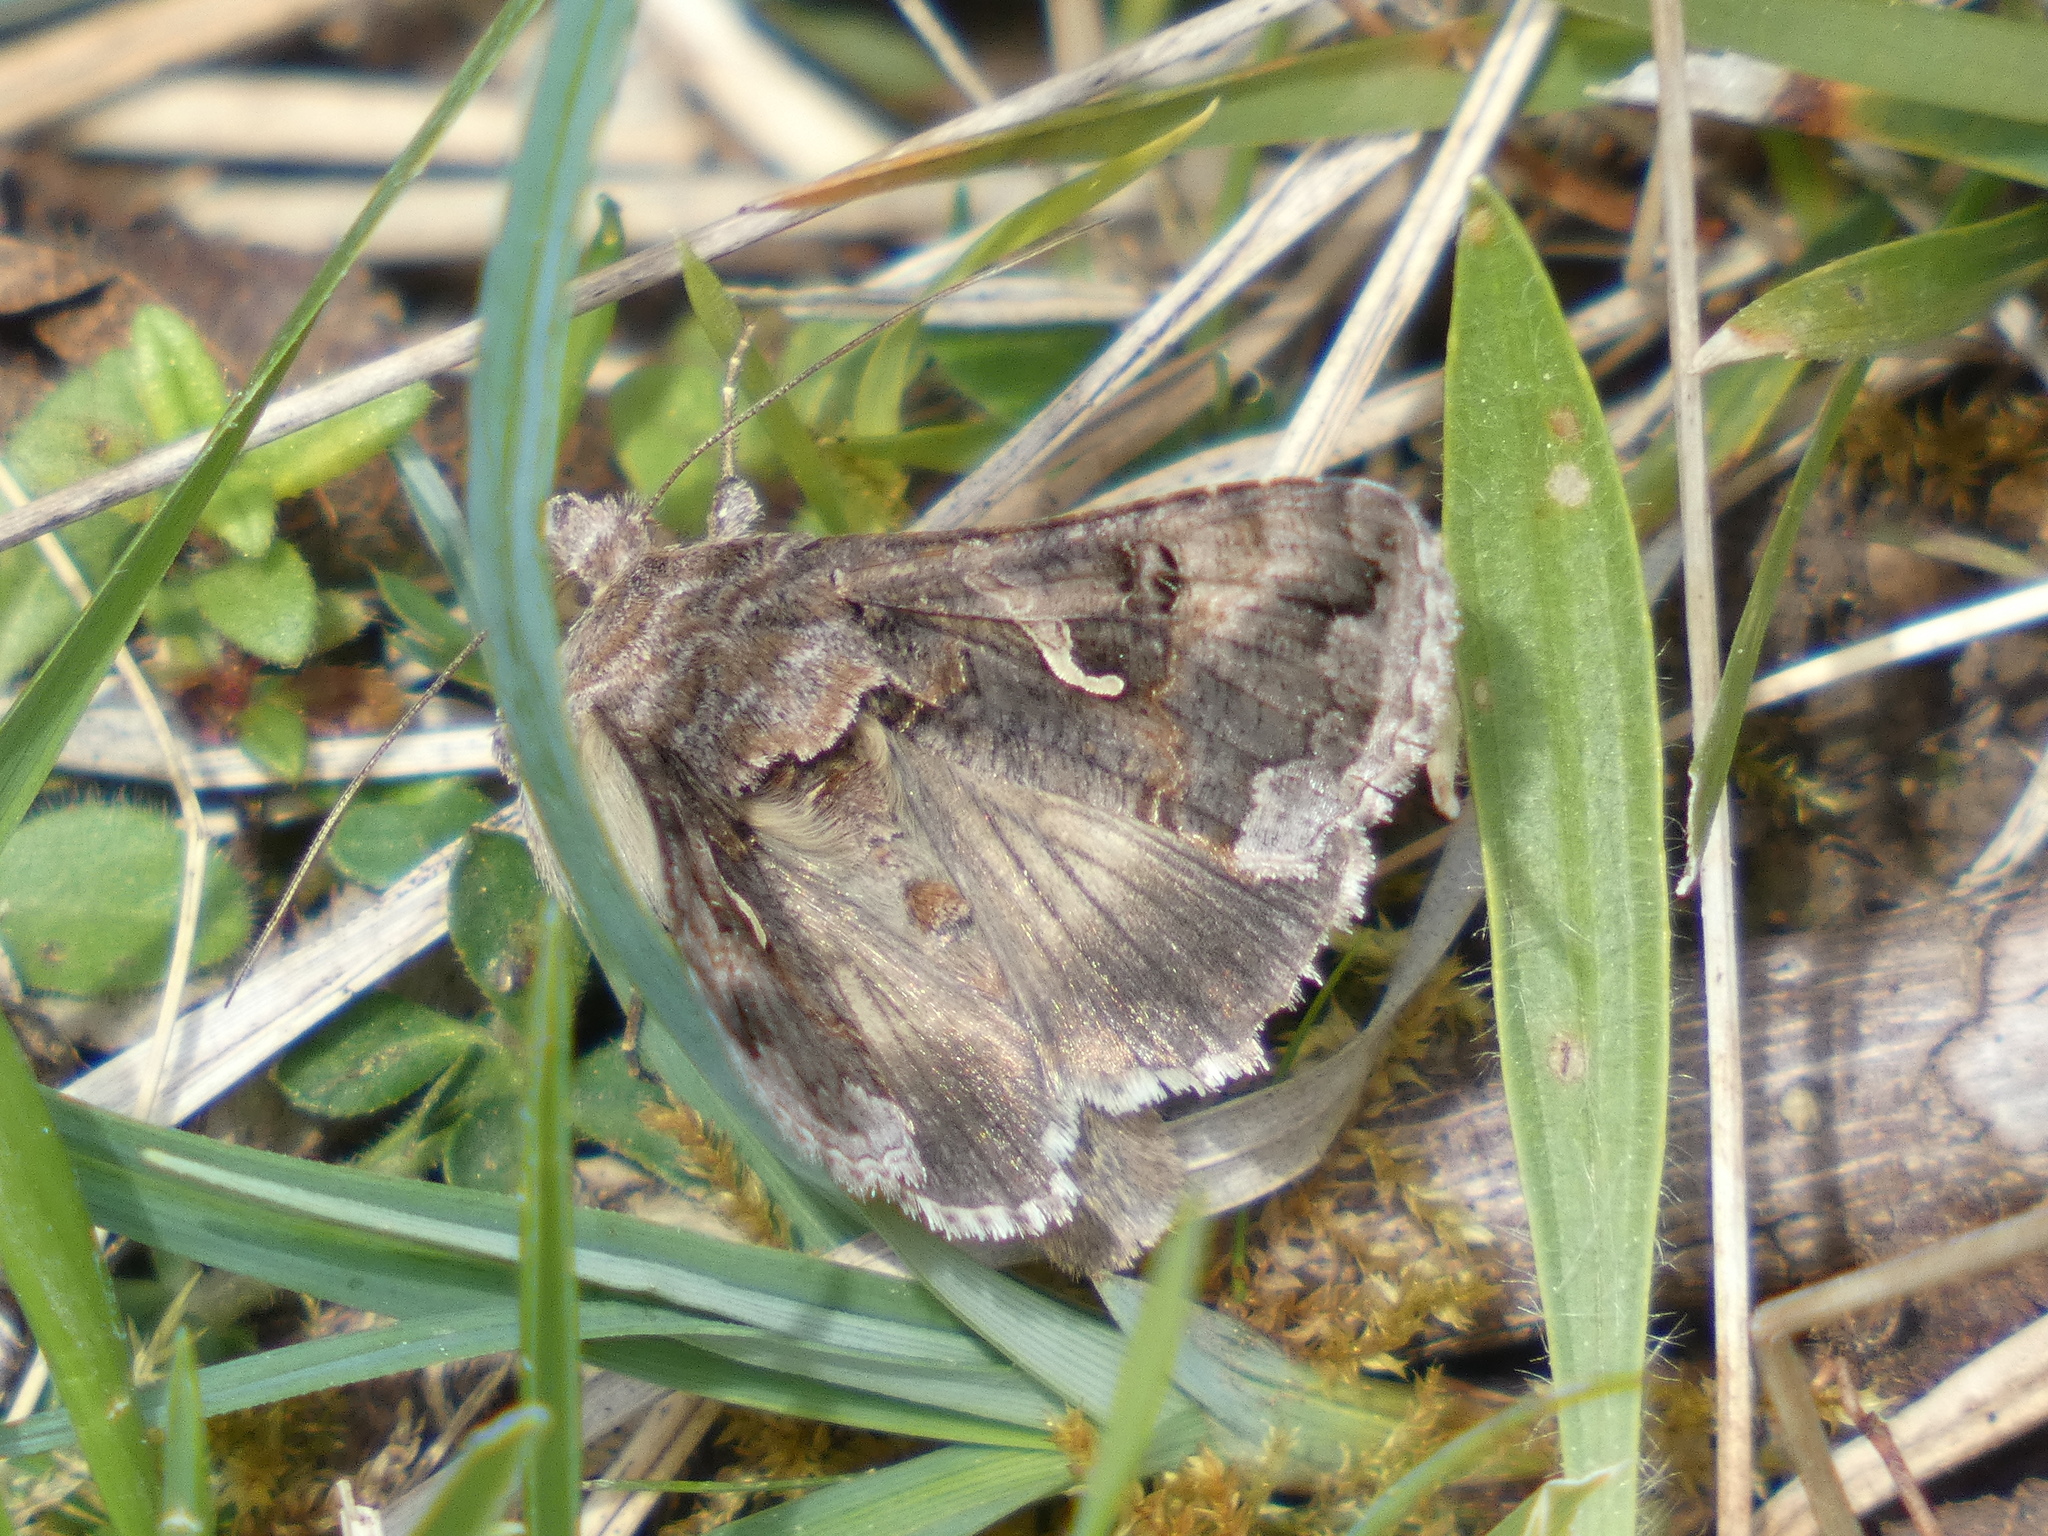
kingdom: Animalia
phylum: Arthropoda
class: Insecta
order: Lepidoptera
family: Noctuidae
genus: Autographa
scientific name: Autographa gamma
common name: Silver y
